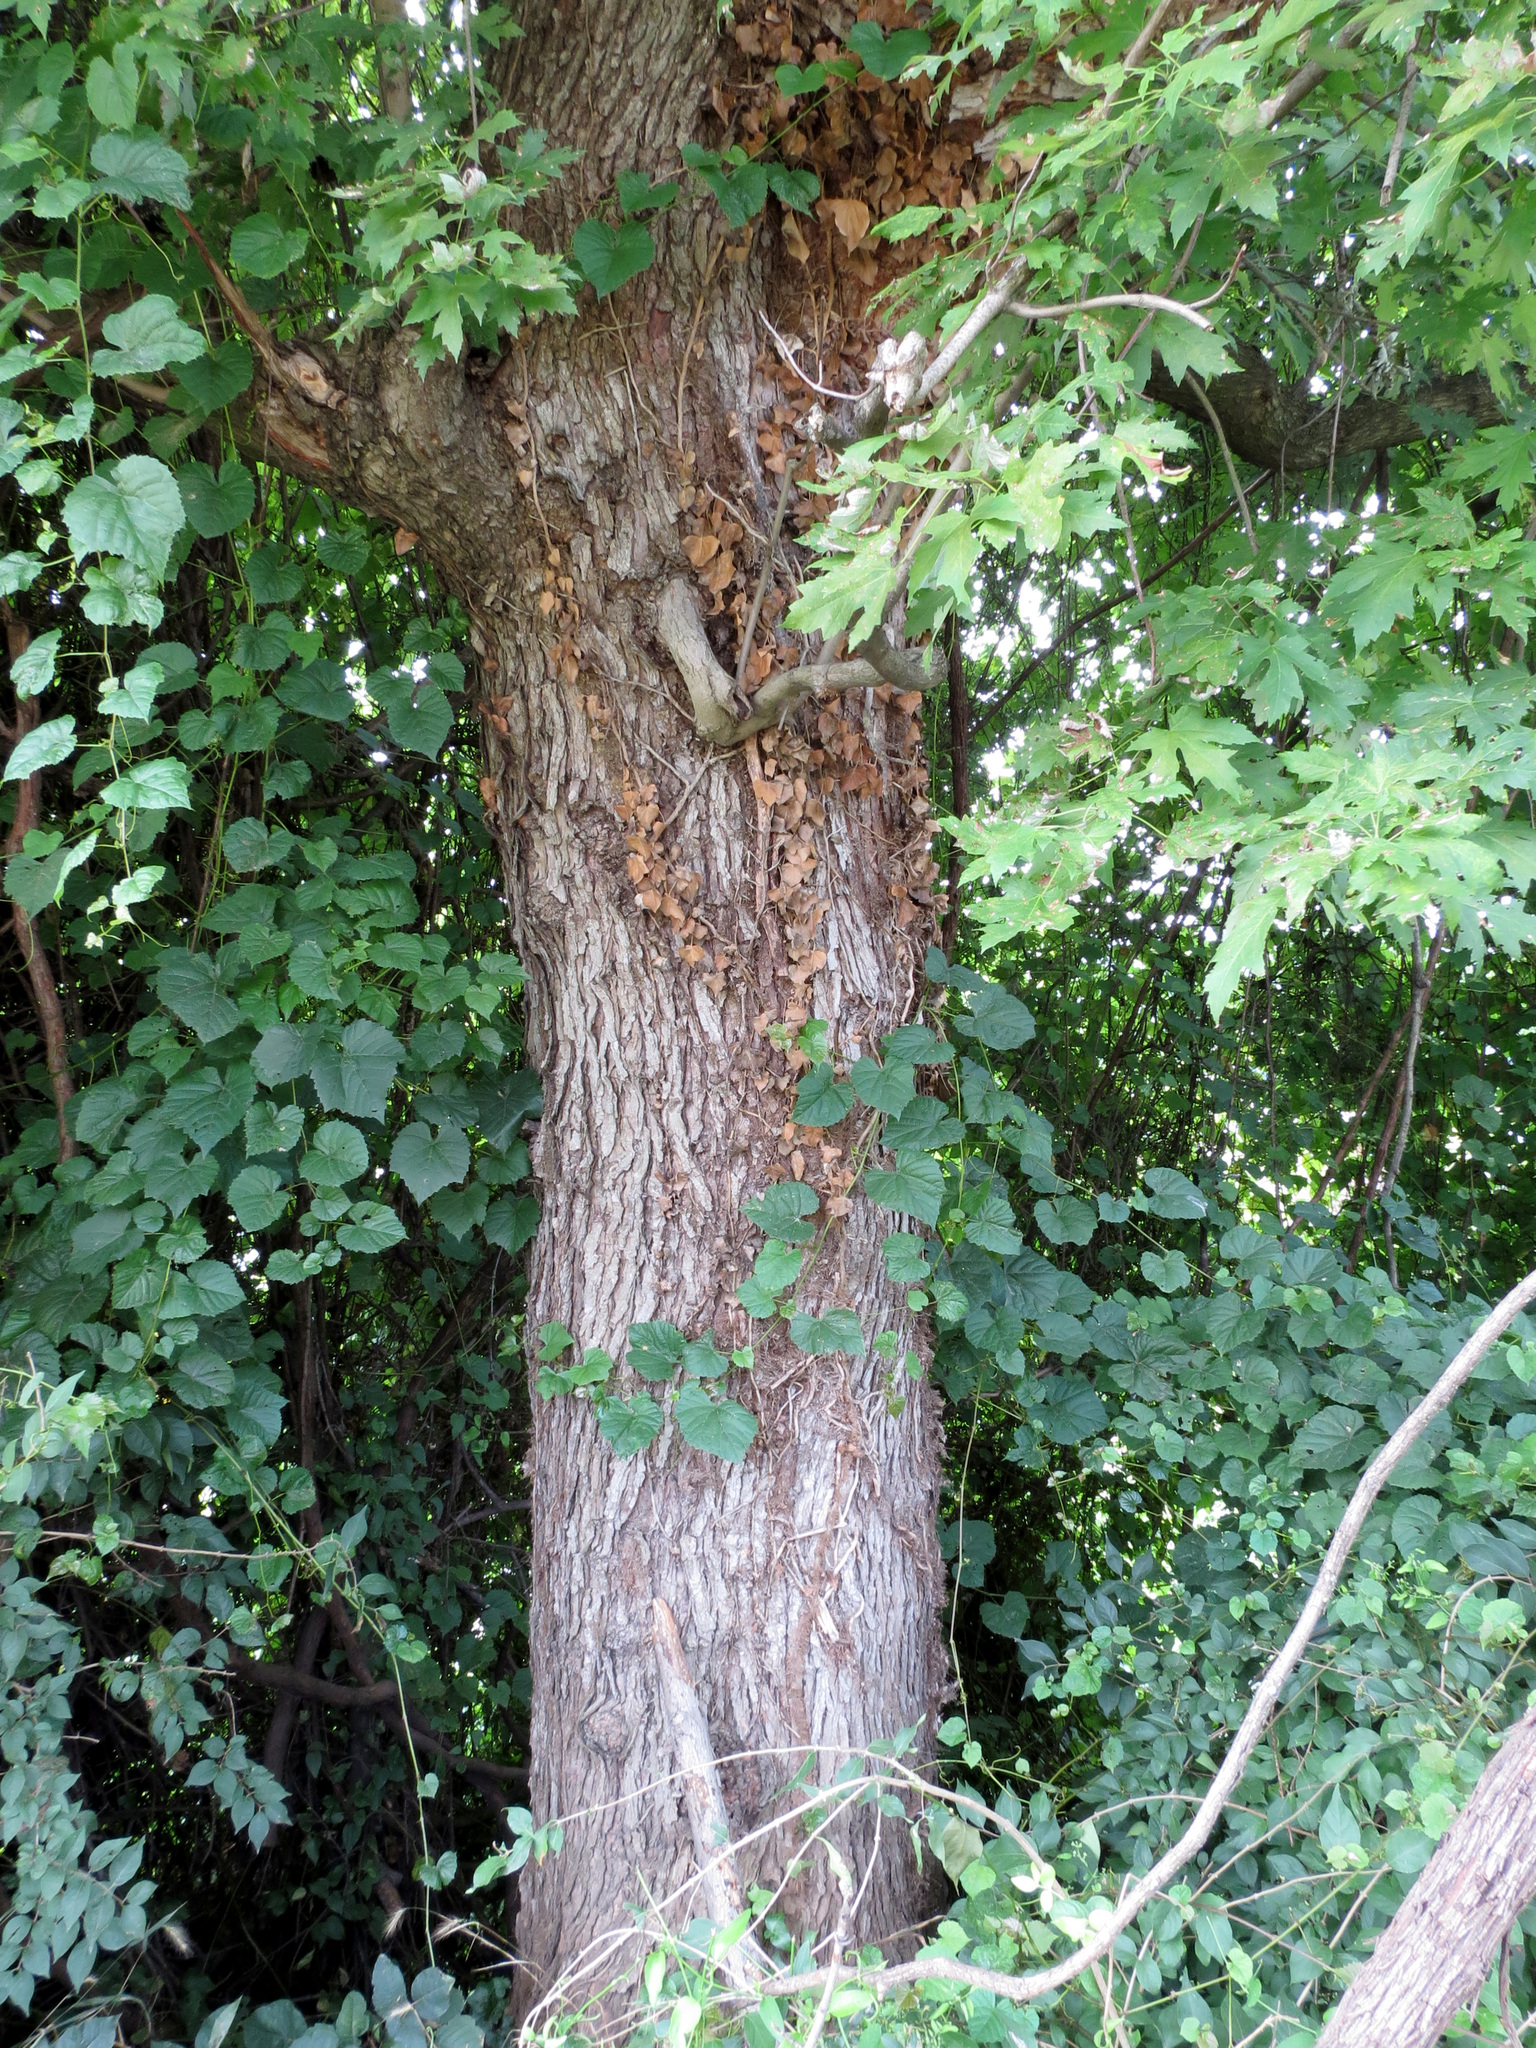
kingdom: Plantae
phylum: Tracheophyta
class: Magnoliopsida
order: Sapindales
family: Sapindaceae
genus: Acer
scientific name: Acer saccharinum
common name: Silver maple
